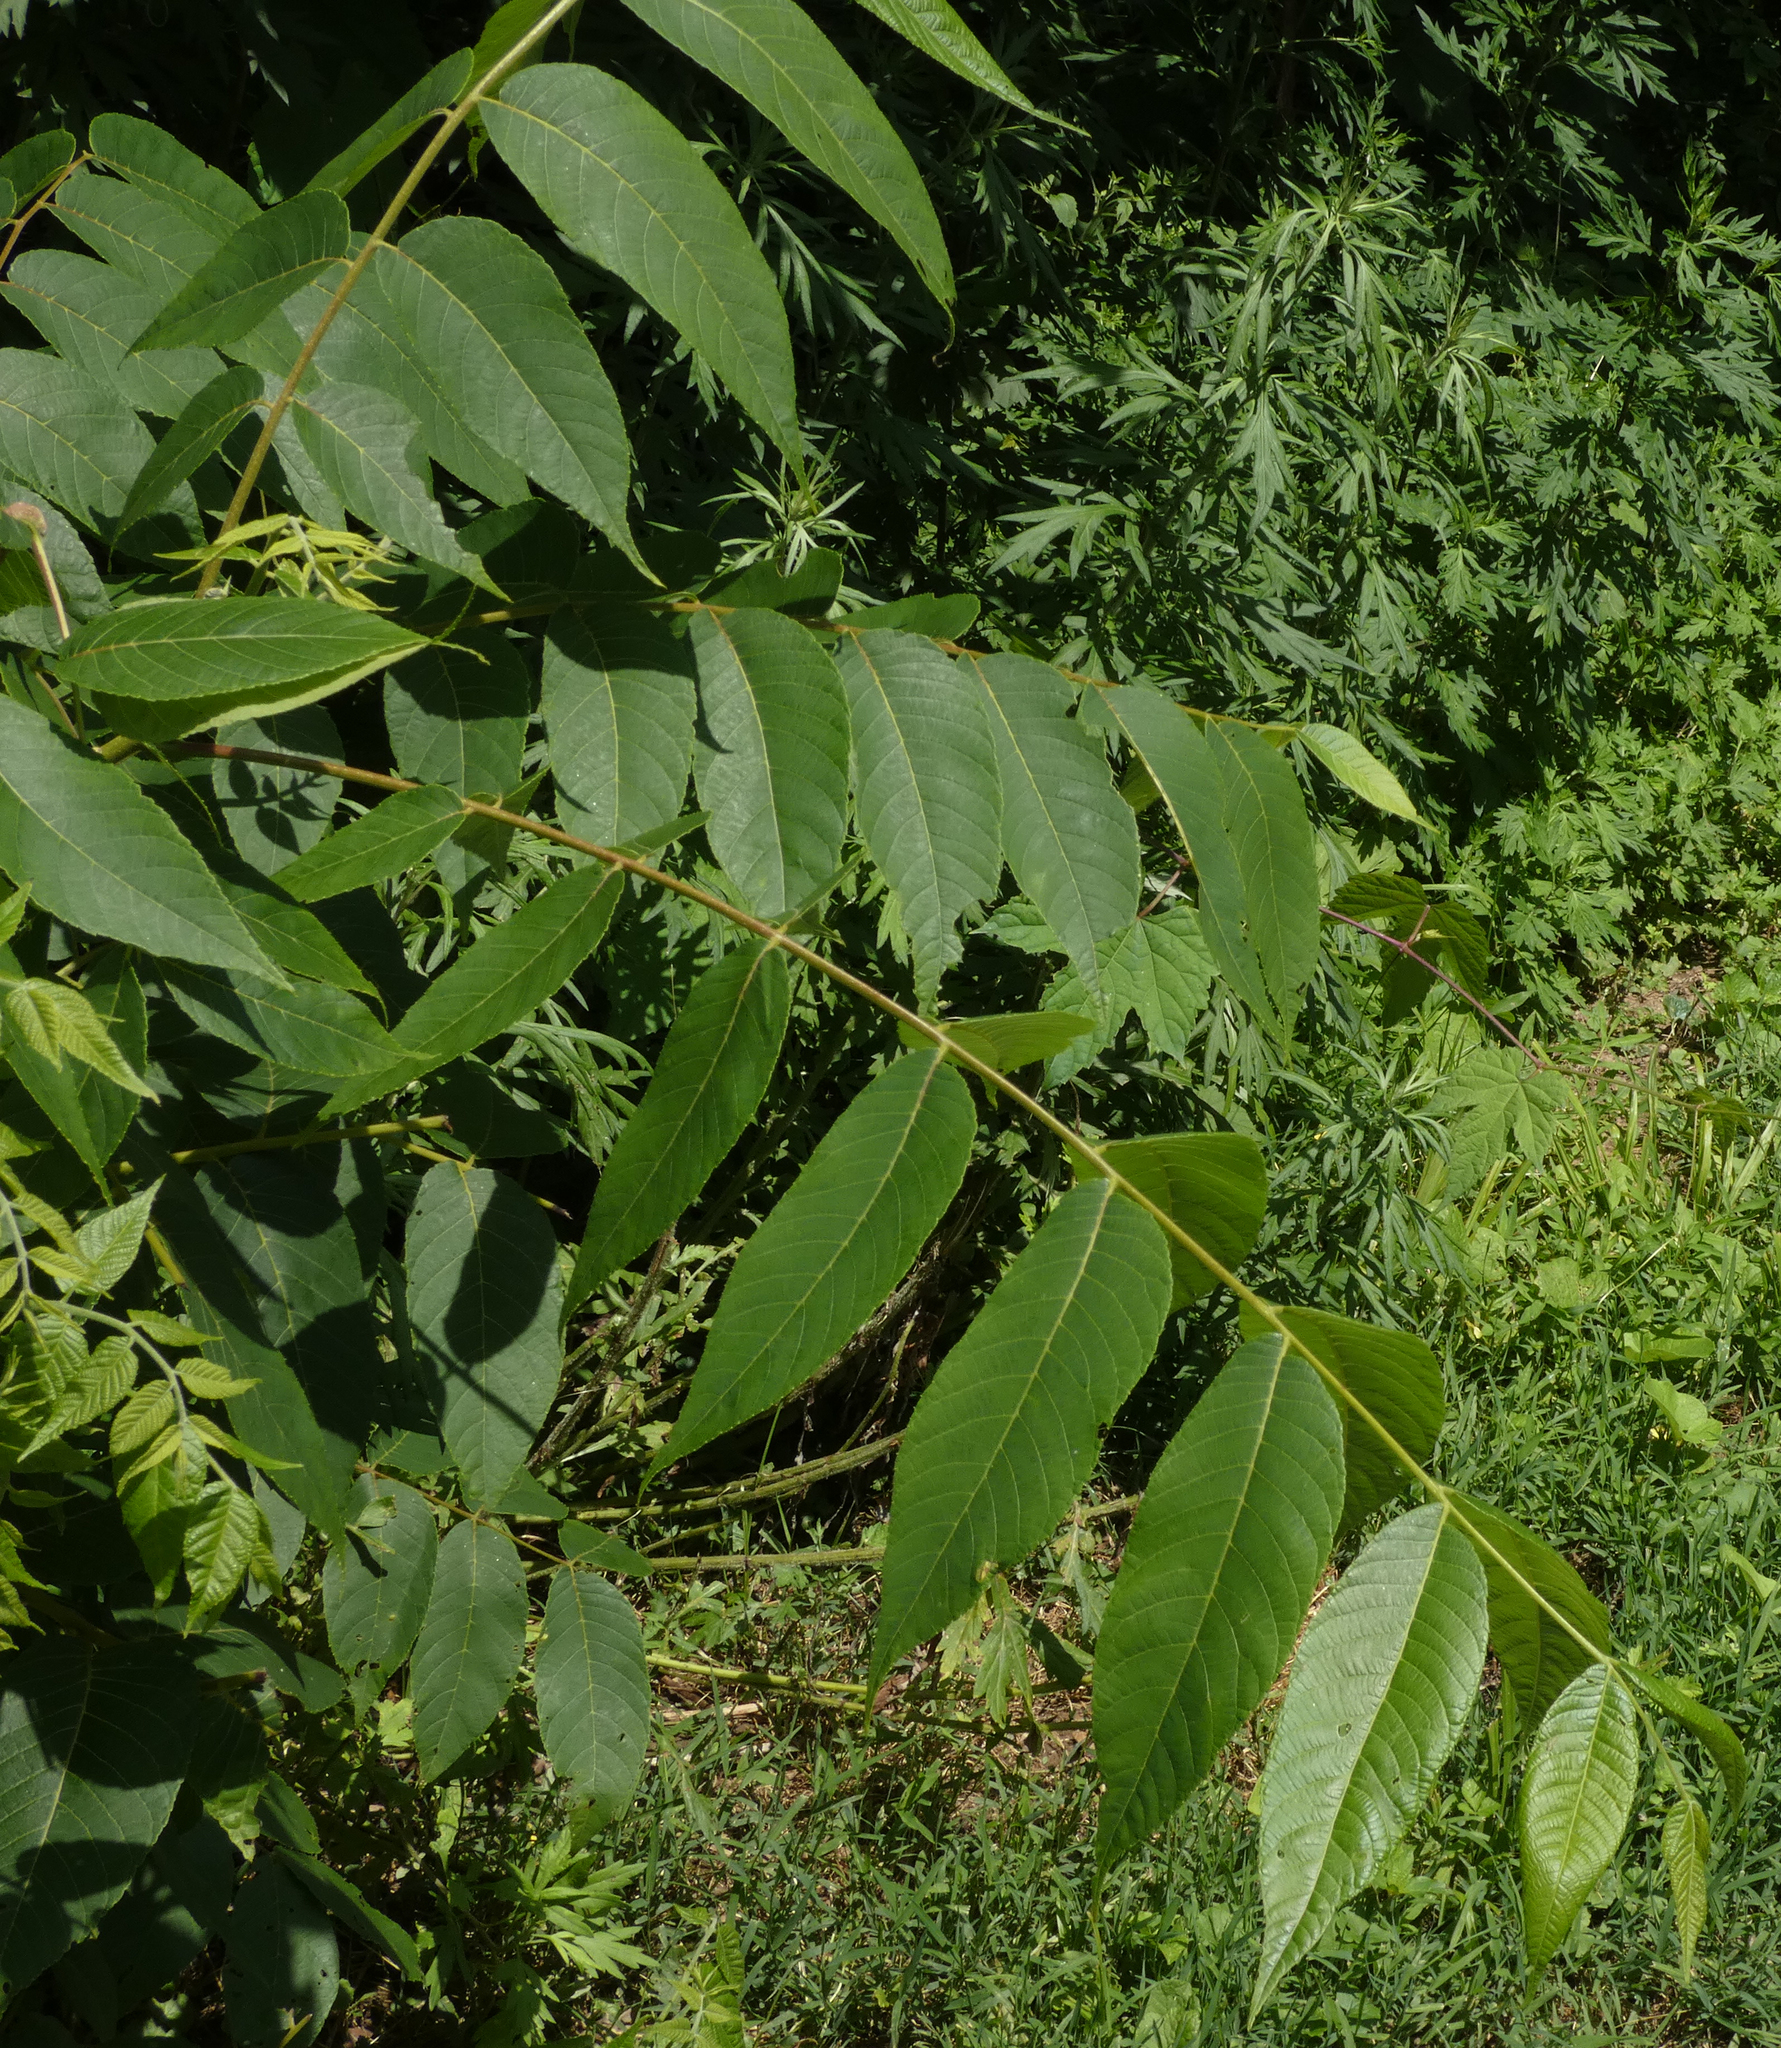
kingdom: Plantae
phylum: Tracheophyta
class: Magnoliopsida
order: Fagales
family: Juglandaceae
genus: Juglans
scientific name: Juglans nigra
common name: Black walnut
